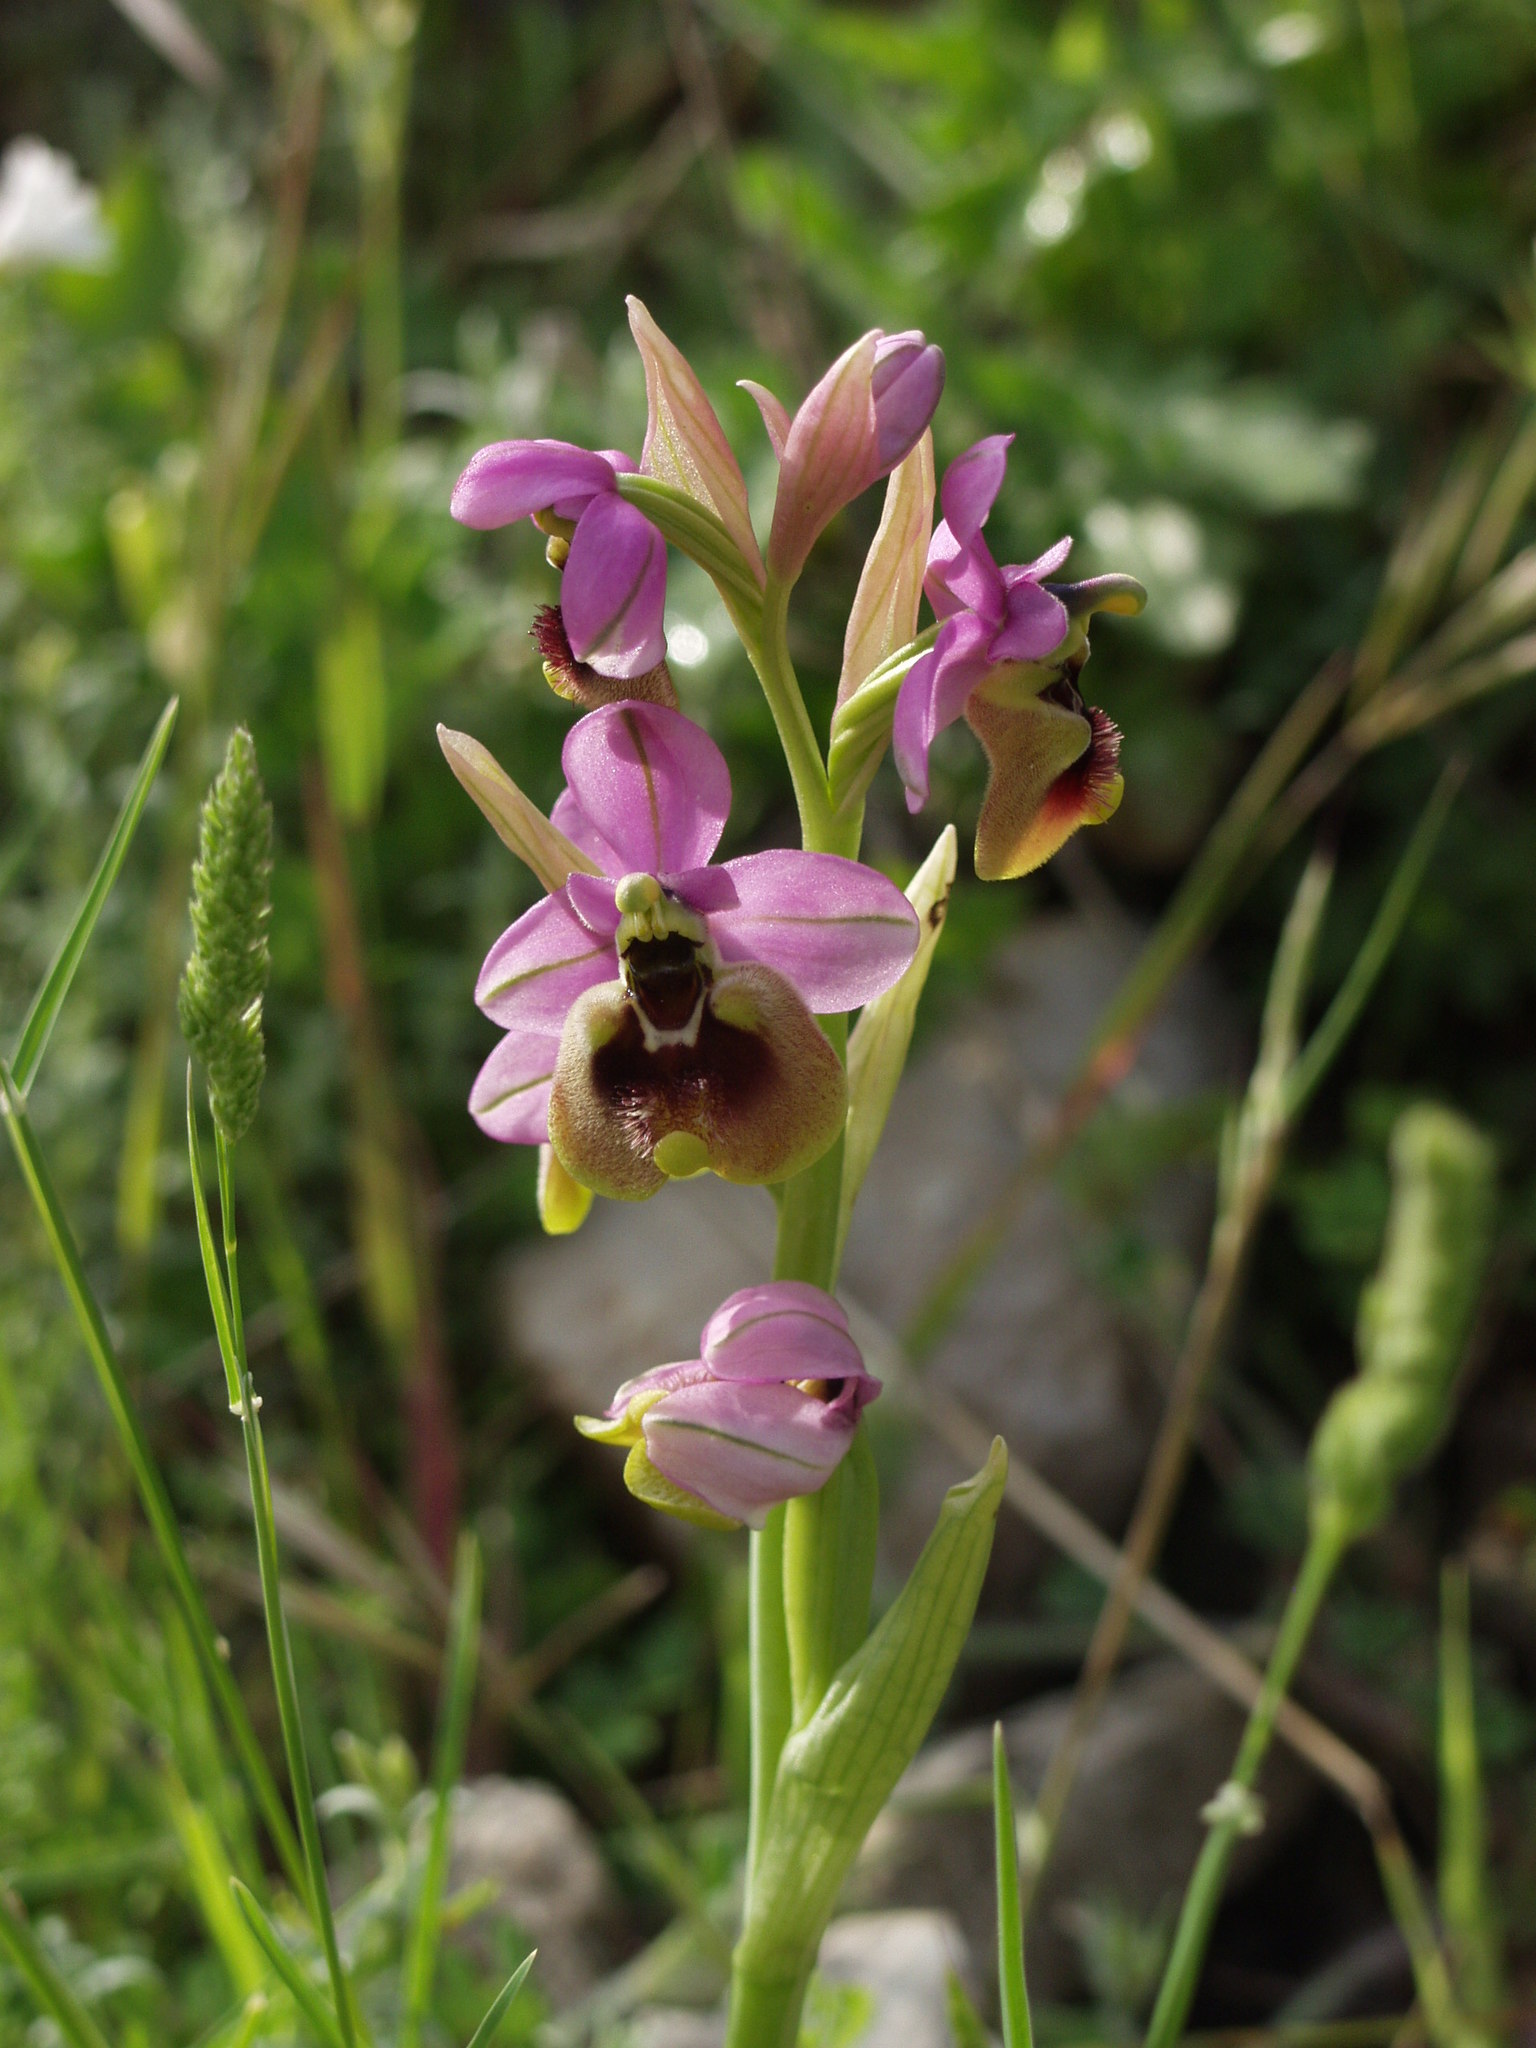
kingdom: Plantae
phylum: Tracheophyta
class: Liliopsida
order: Asparagales
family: Orchidaceae
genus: Ophrys
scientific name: Ophrys tenthredinifera
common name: Sawfly orchid
